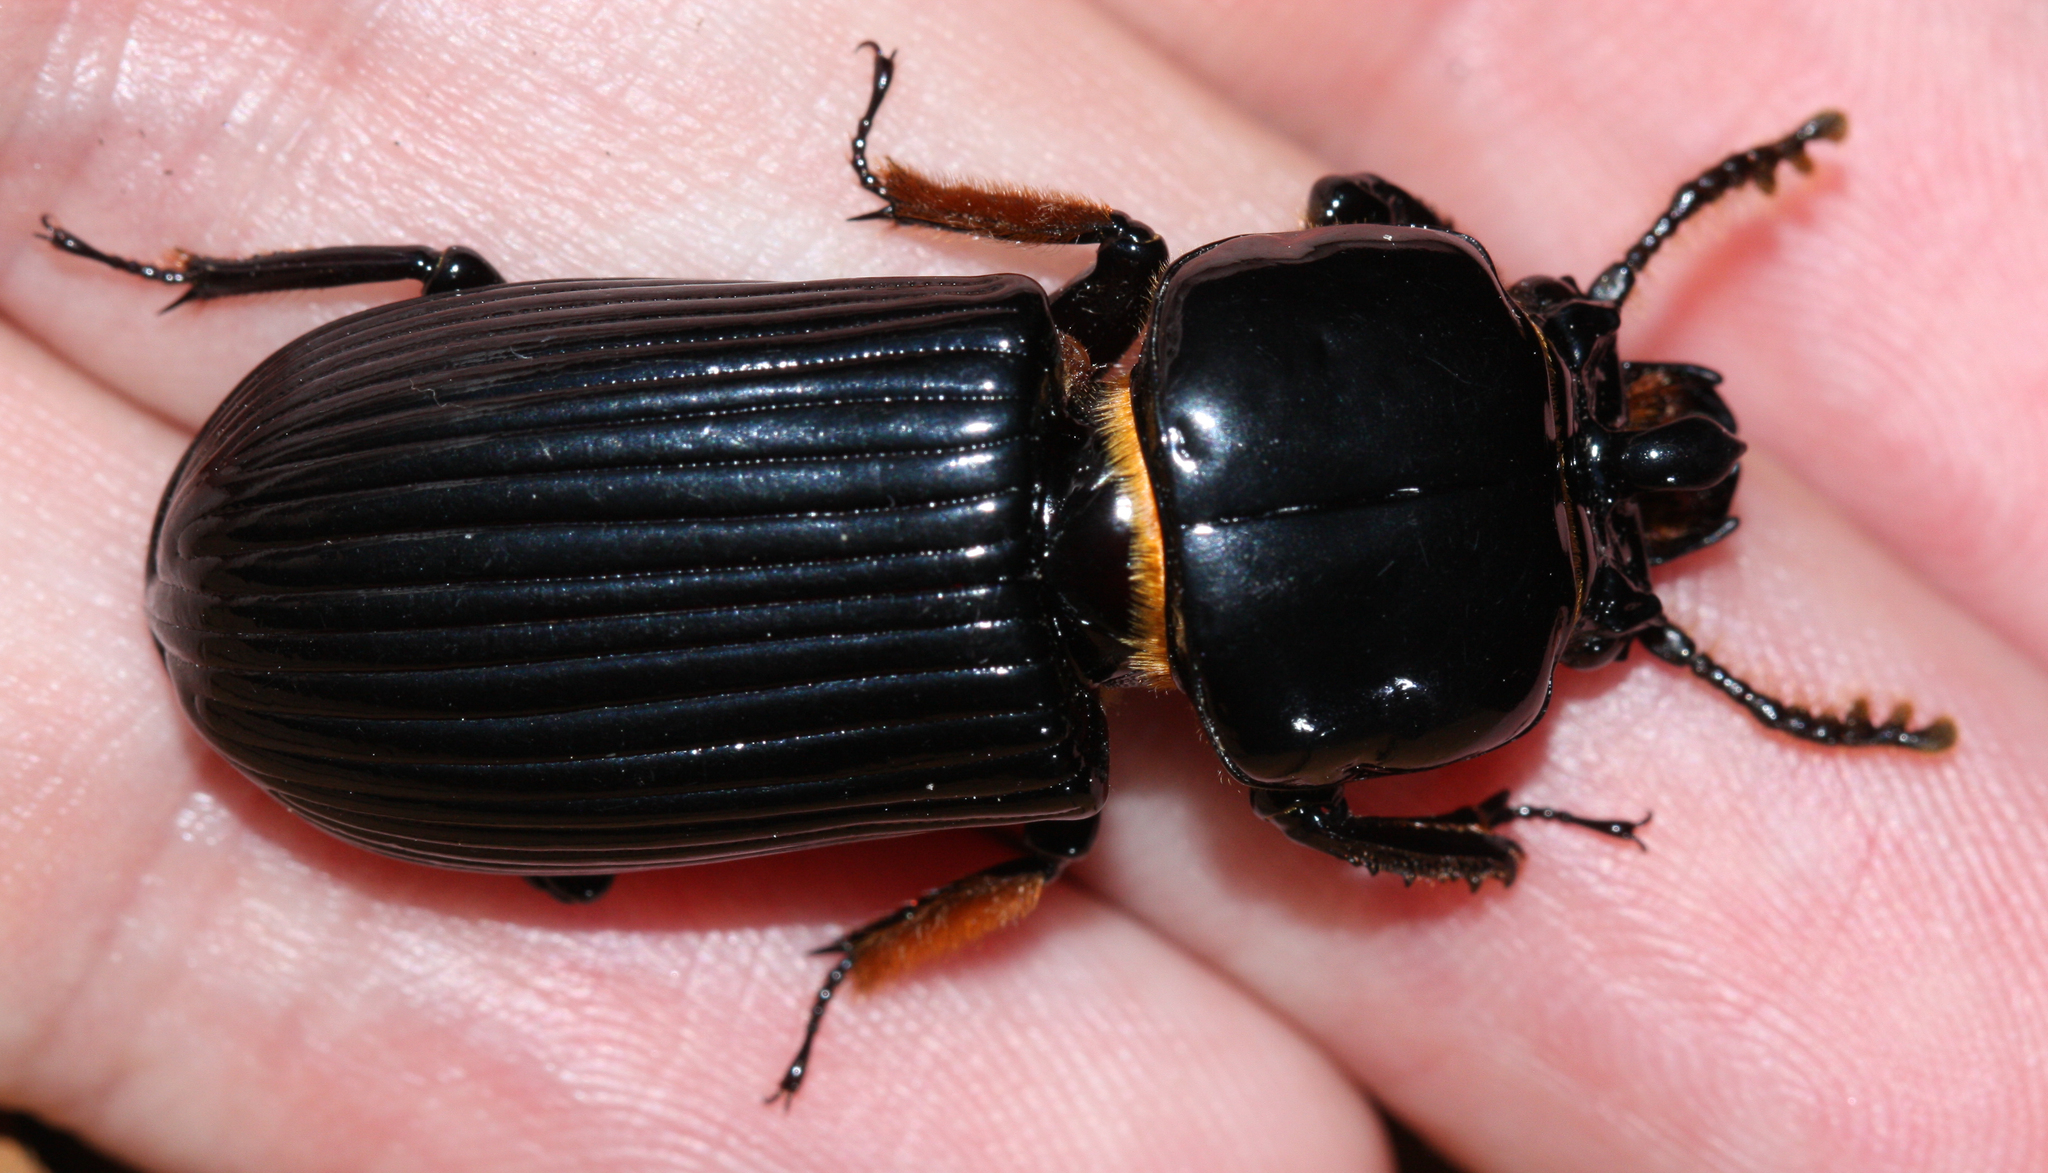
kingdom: Animalia
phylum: Arthropoda
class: Insecta
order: Coleoptera
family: Passalidae
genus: Odontotaenius
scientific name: Odontotaenius disjunctus
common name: Patent leather beetle
